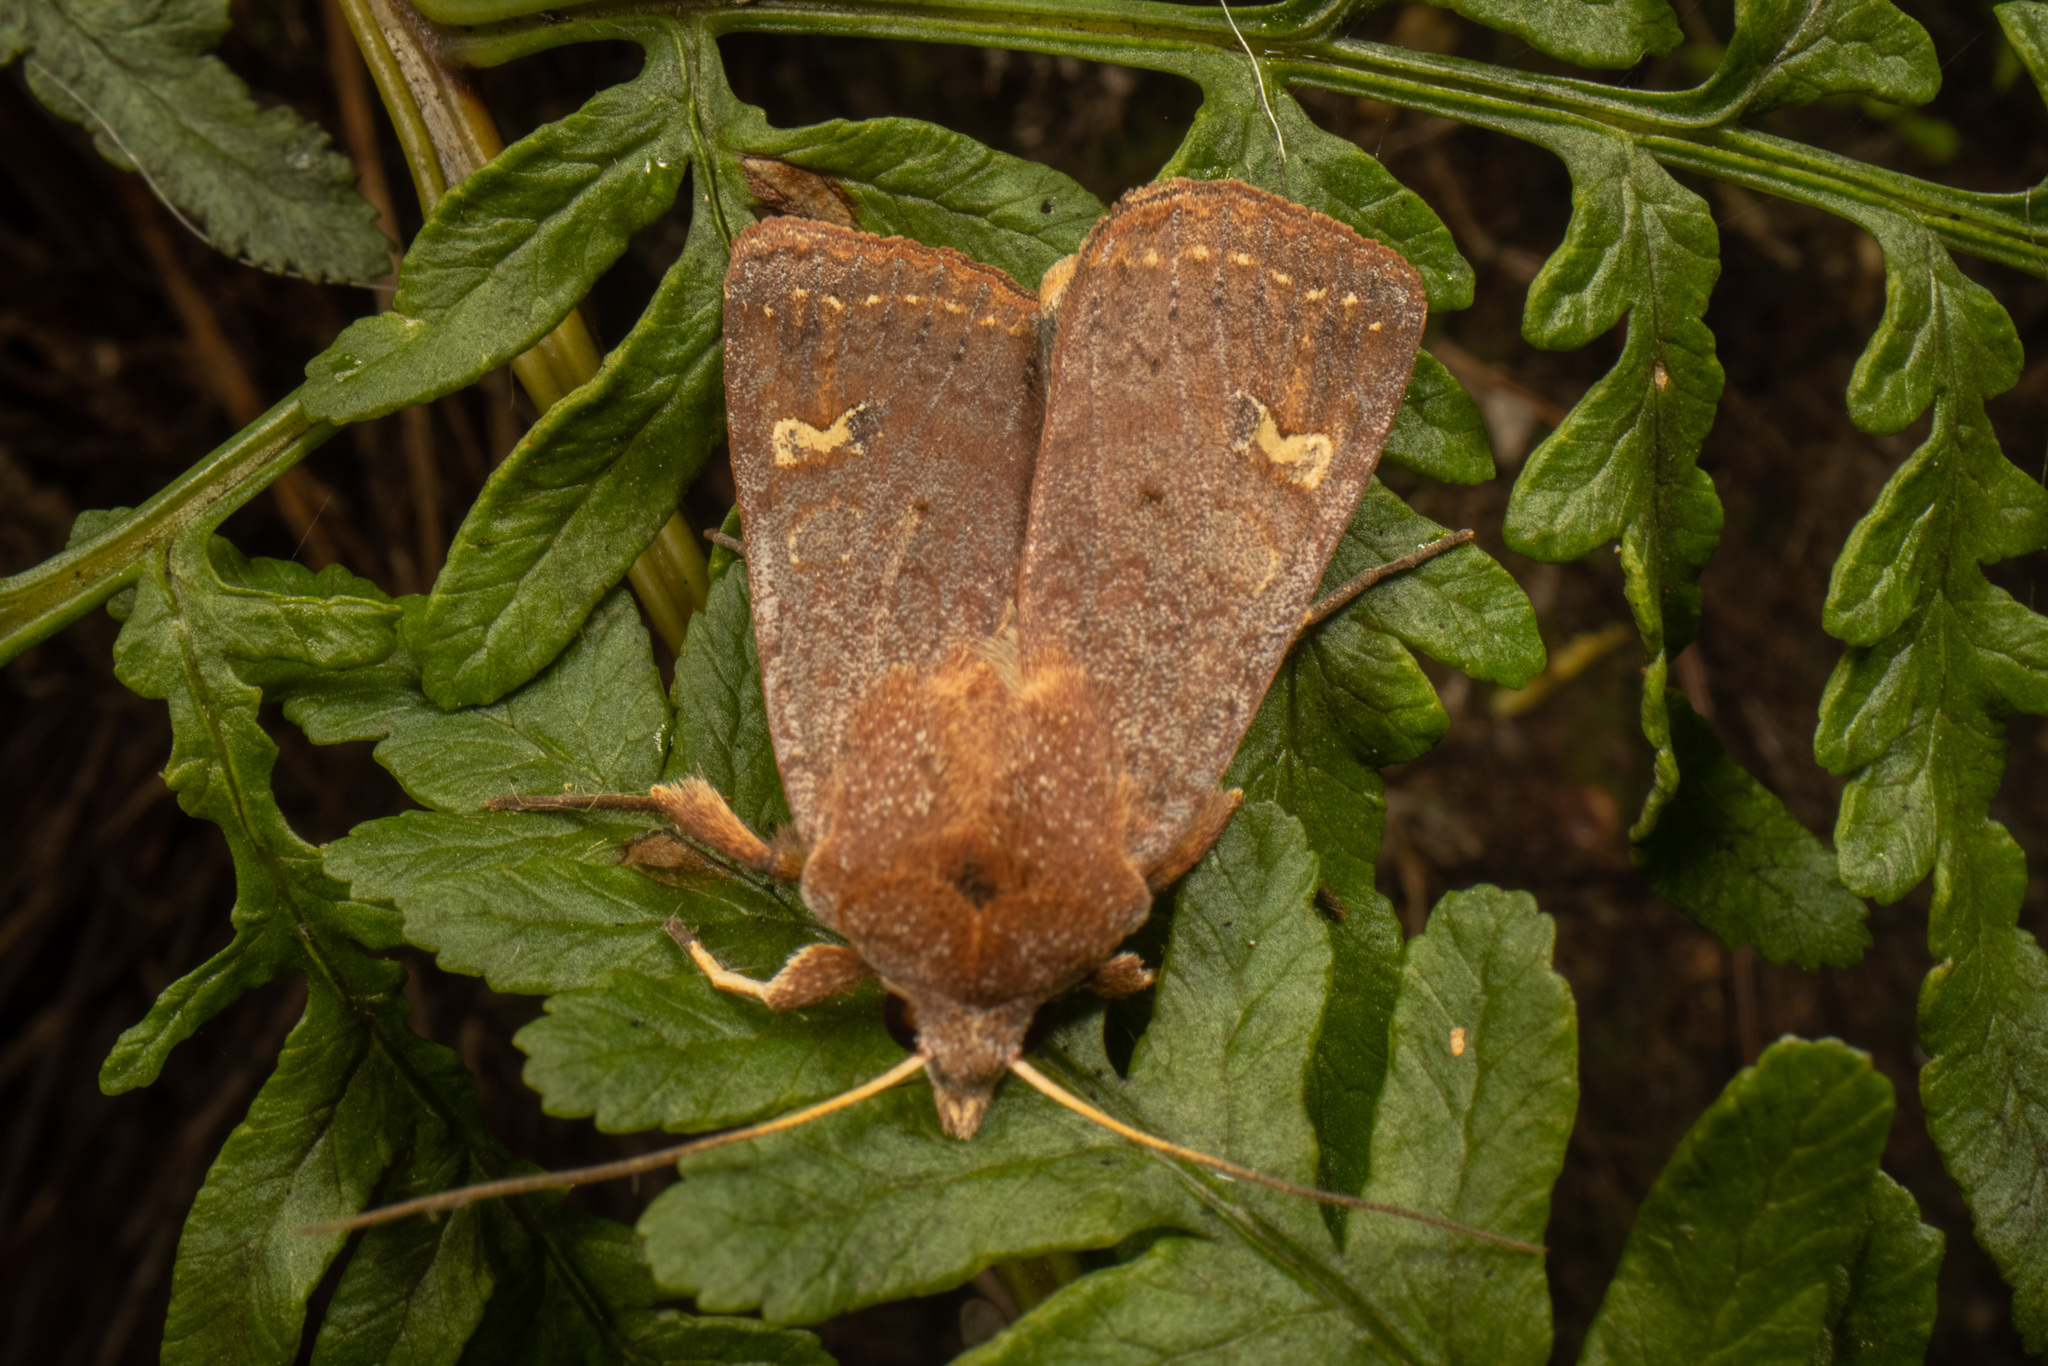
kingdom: Animalia
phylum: Arthropoda
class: Insecta
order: Lepidoptera
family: Noctuidae
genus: Diarsia
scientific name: Diarsia intermixta
